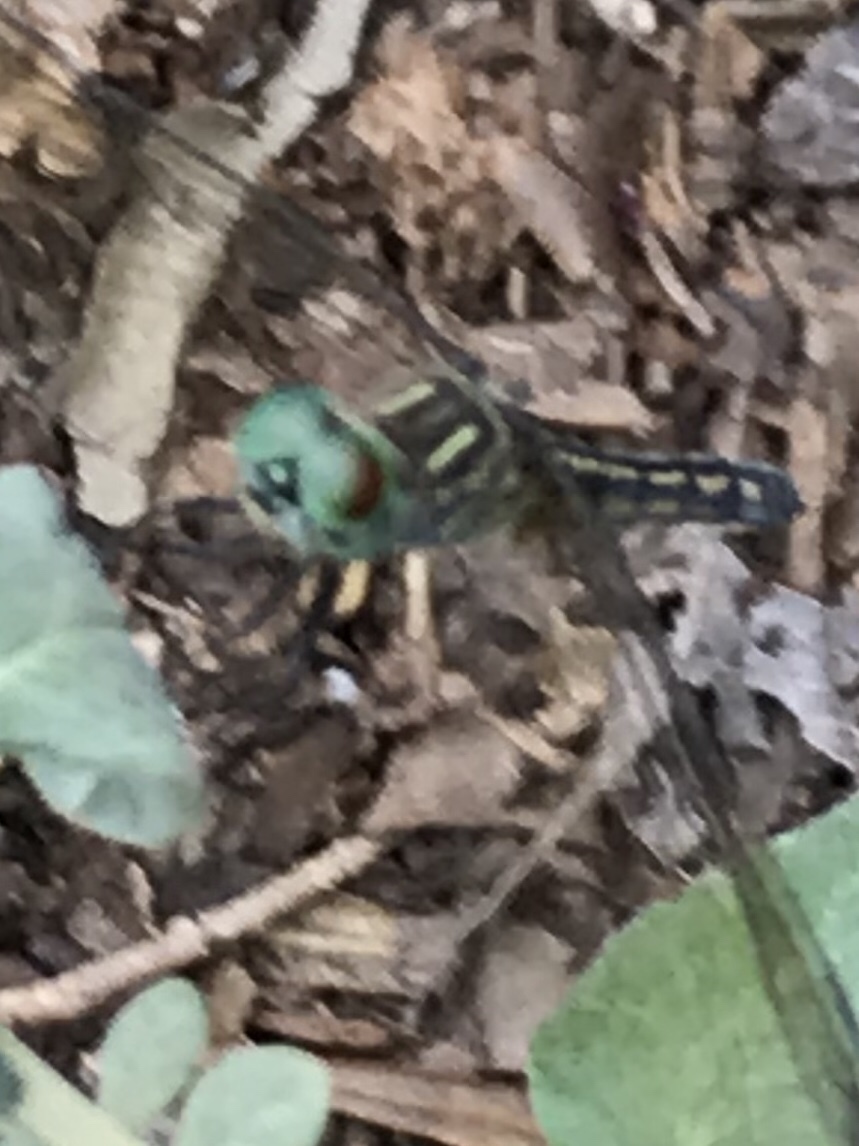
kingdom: Animalia
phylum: Arthropoda
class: Insecta
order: Odonata
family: Libellulidae
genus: Pachydiplax
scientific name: Pachydiplax longipennis
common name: Blue dasher
